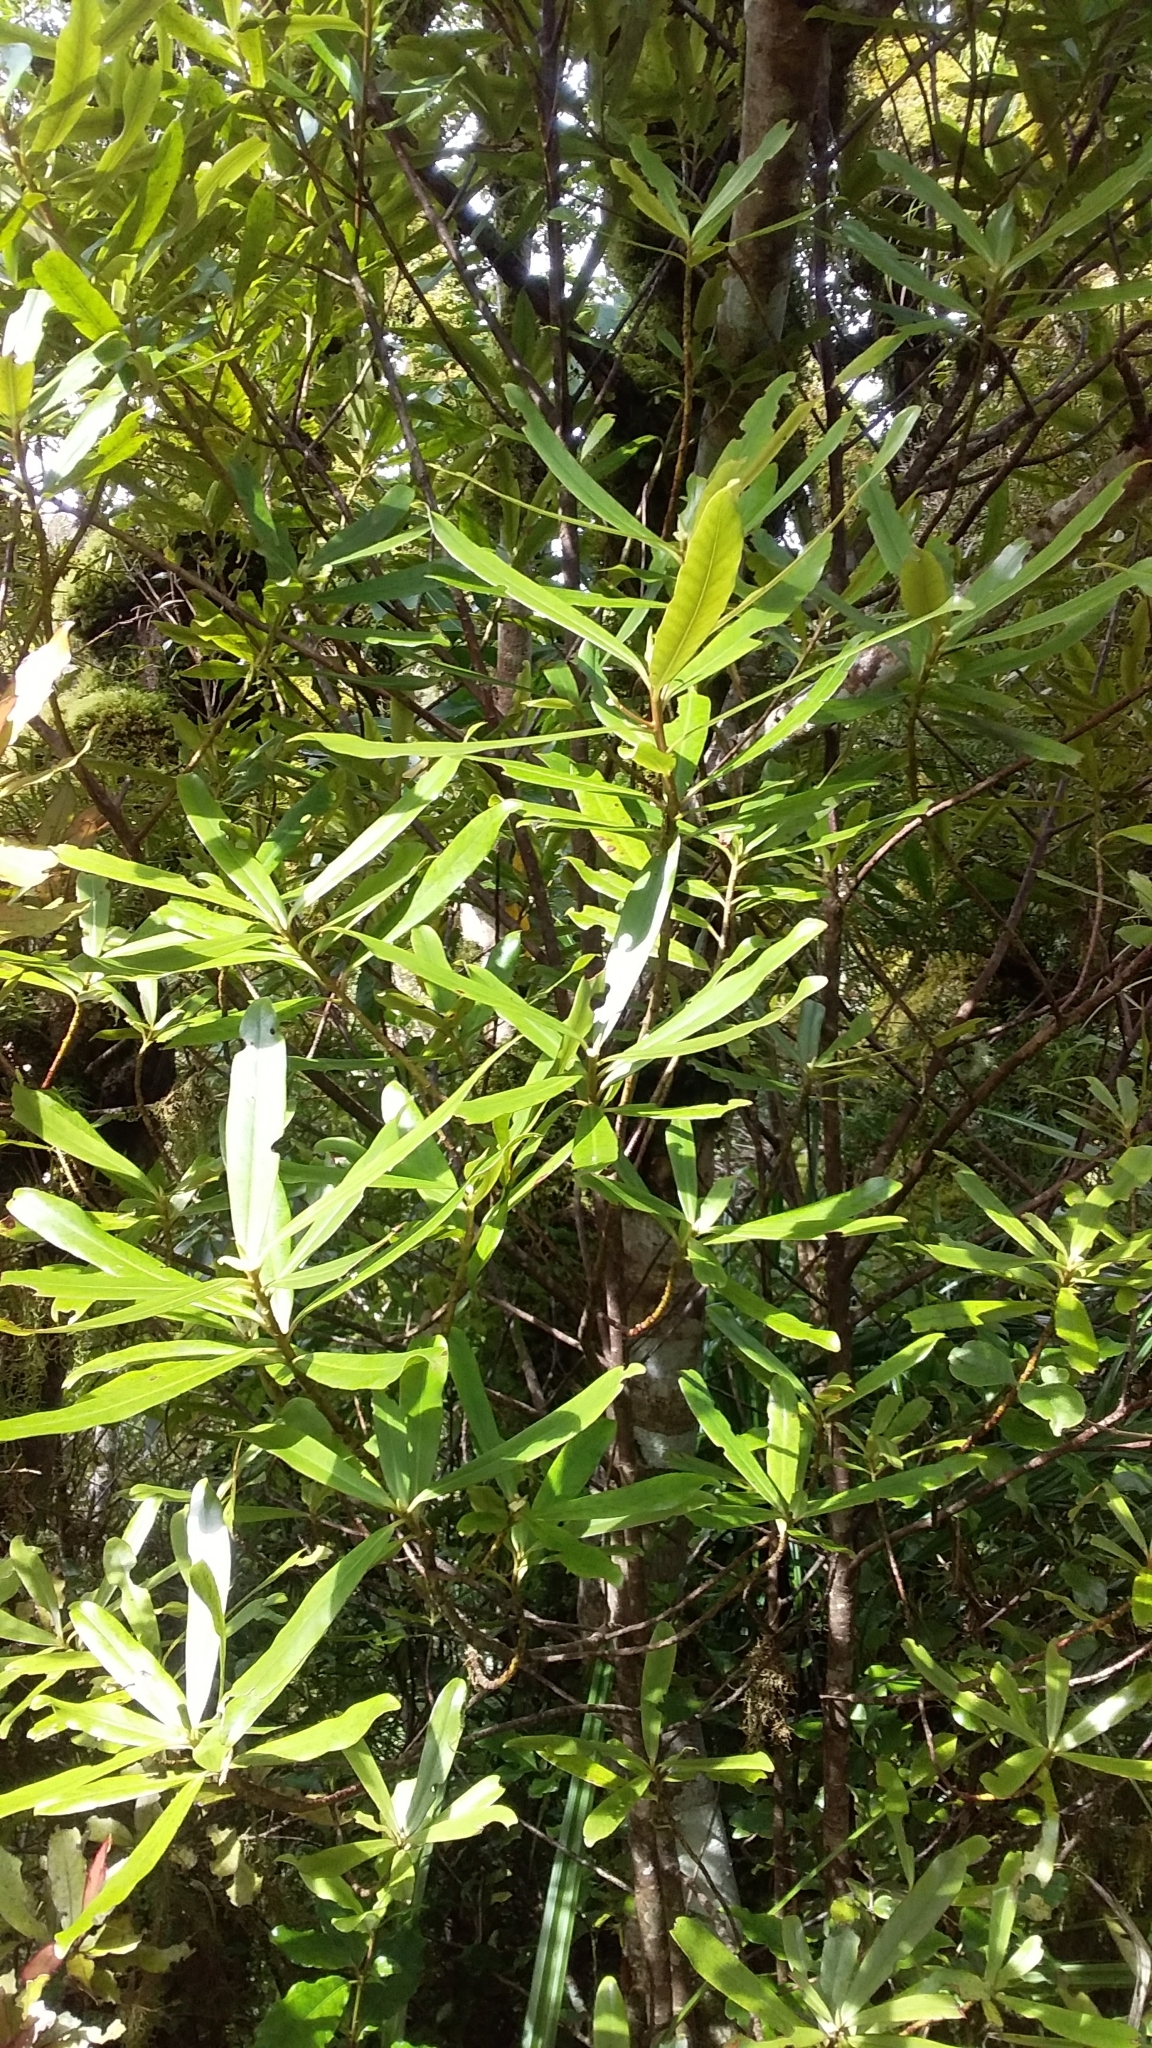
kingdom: Plantae
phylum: Tracheophyta
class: Magnoliopsida
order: Ericales
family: Primulaceae
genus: Myrsine
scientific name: Myrsine salicina
